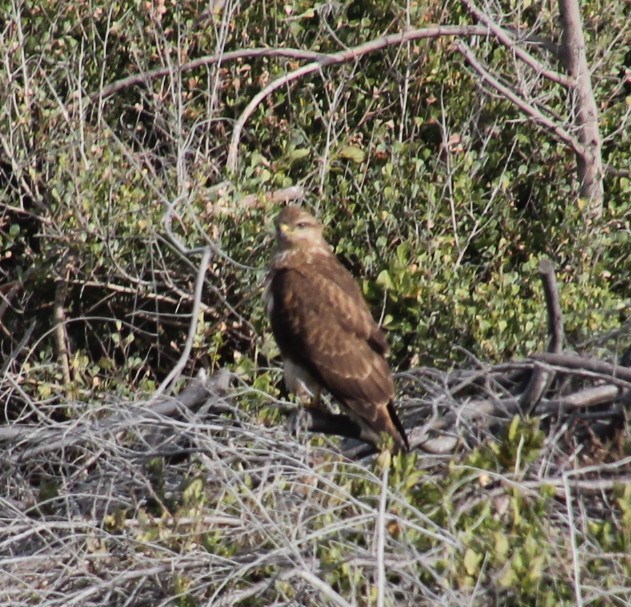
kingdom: Animalia
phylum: Chordata
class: Aves
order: Accipitriformes
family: Accipitridae
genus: Buteo
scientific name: Buteo buteo
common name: Common buzzard
